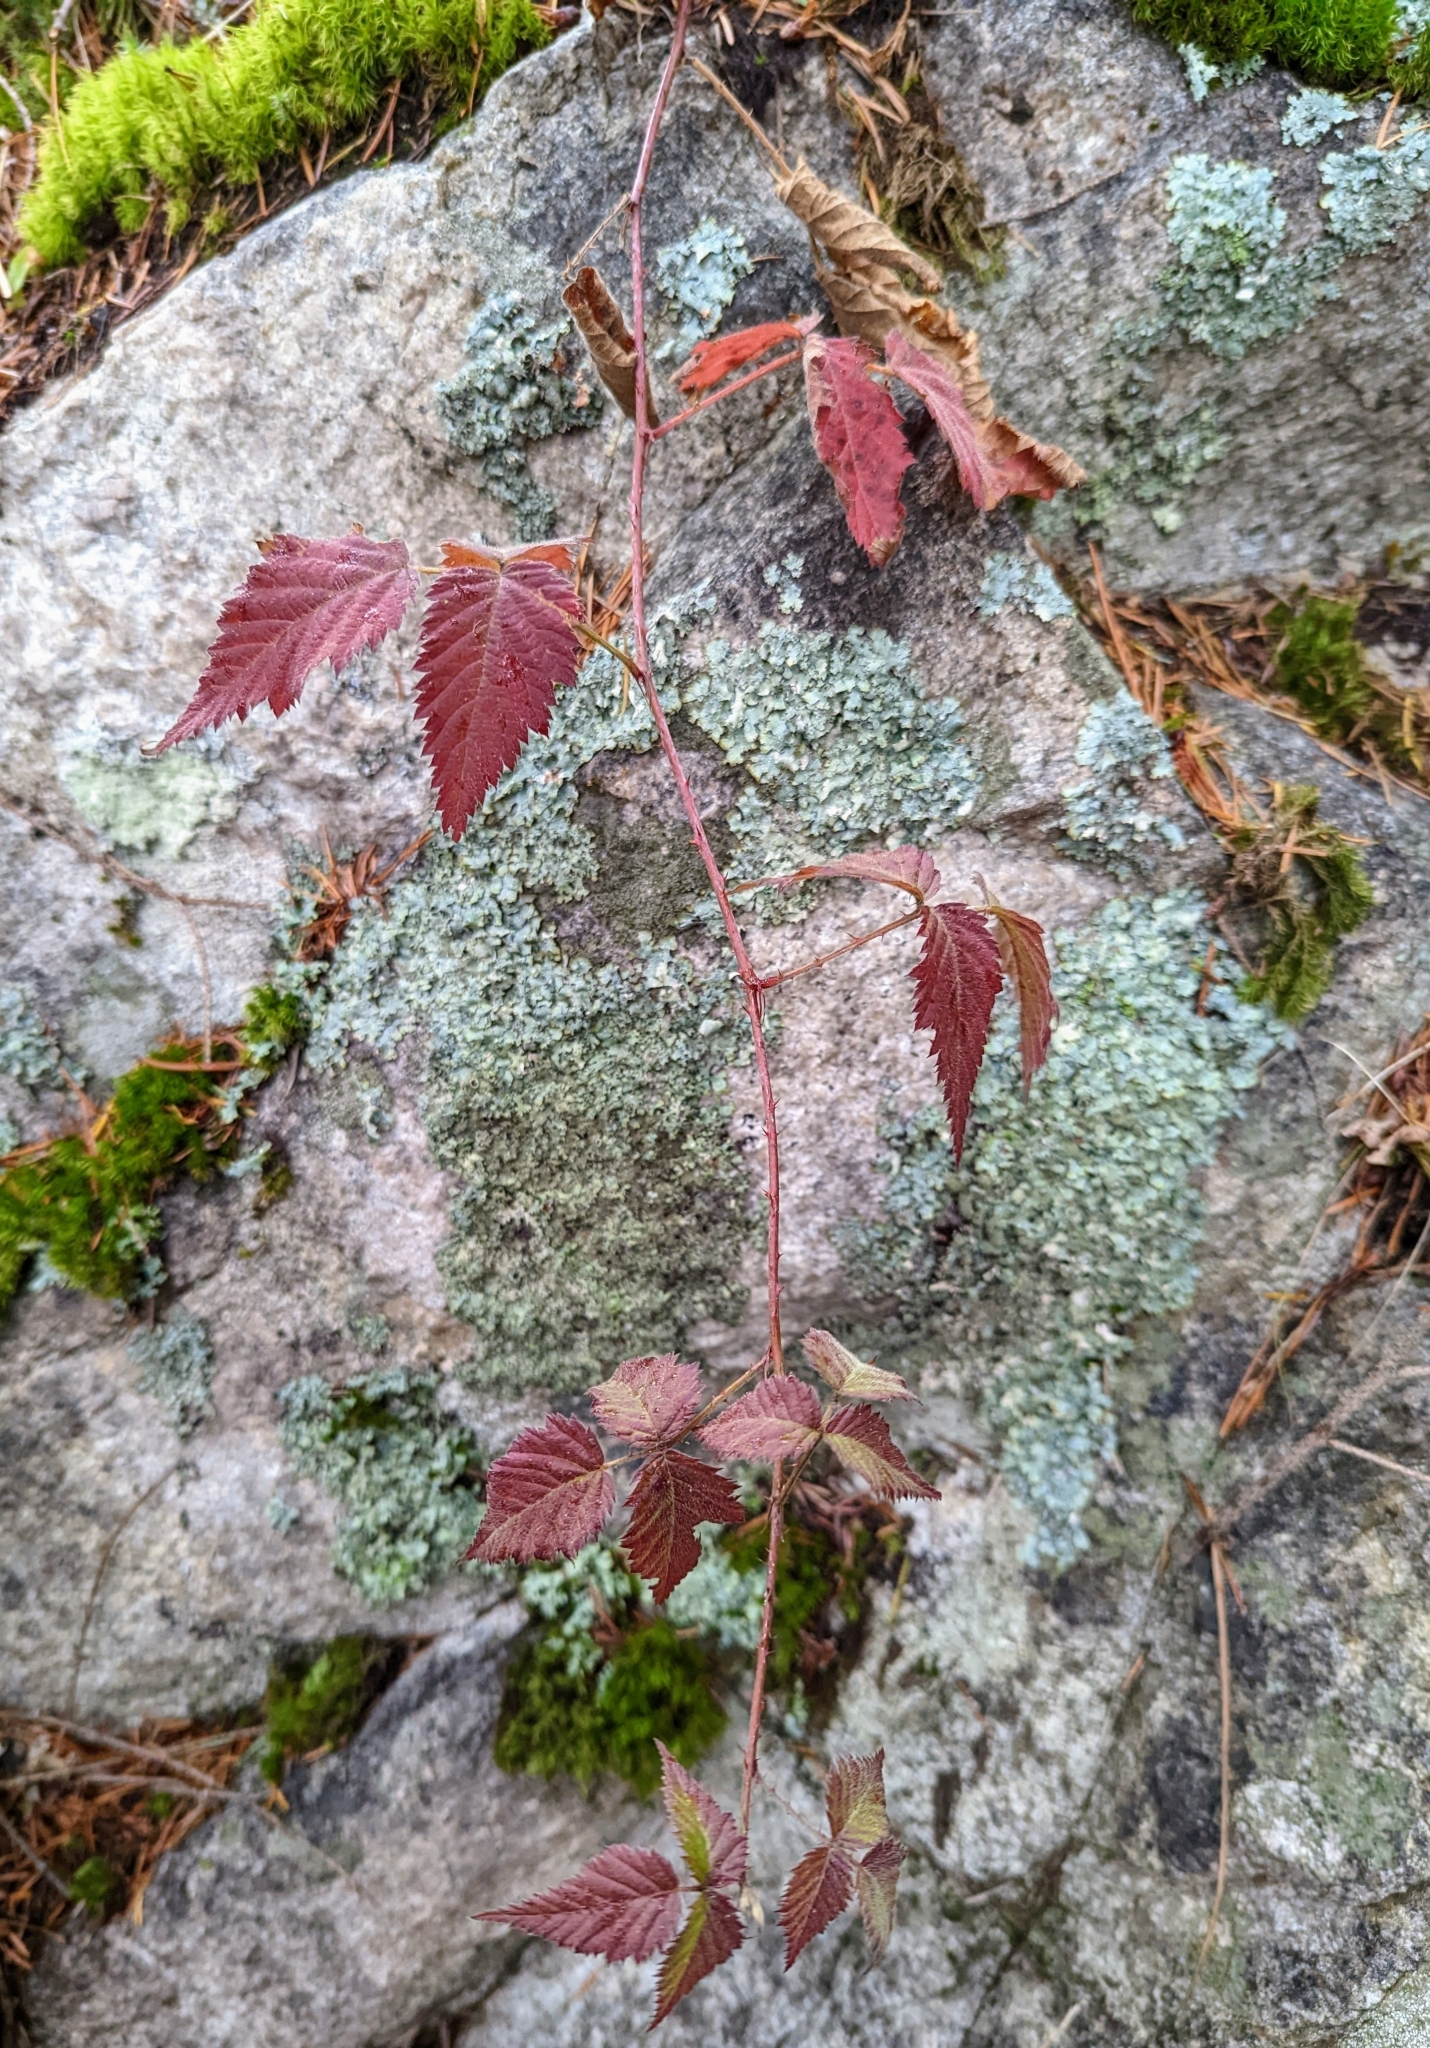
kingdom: Plantae
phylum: Tracheophyta
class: Magnoliopsida
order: Rosales
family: Rosaceae
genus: Rubus
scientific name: Rubus ursinus
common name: Pacific blackberry
